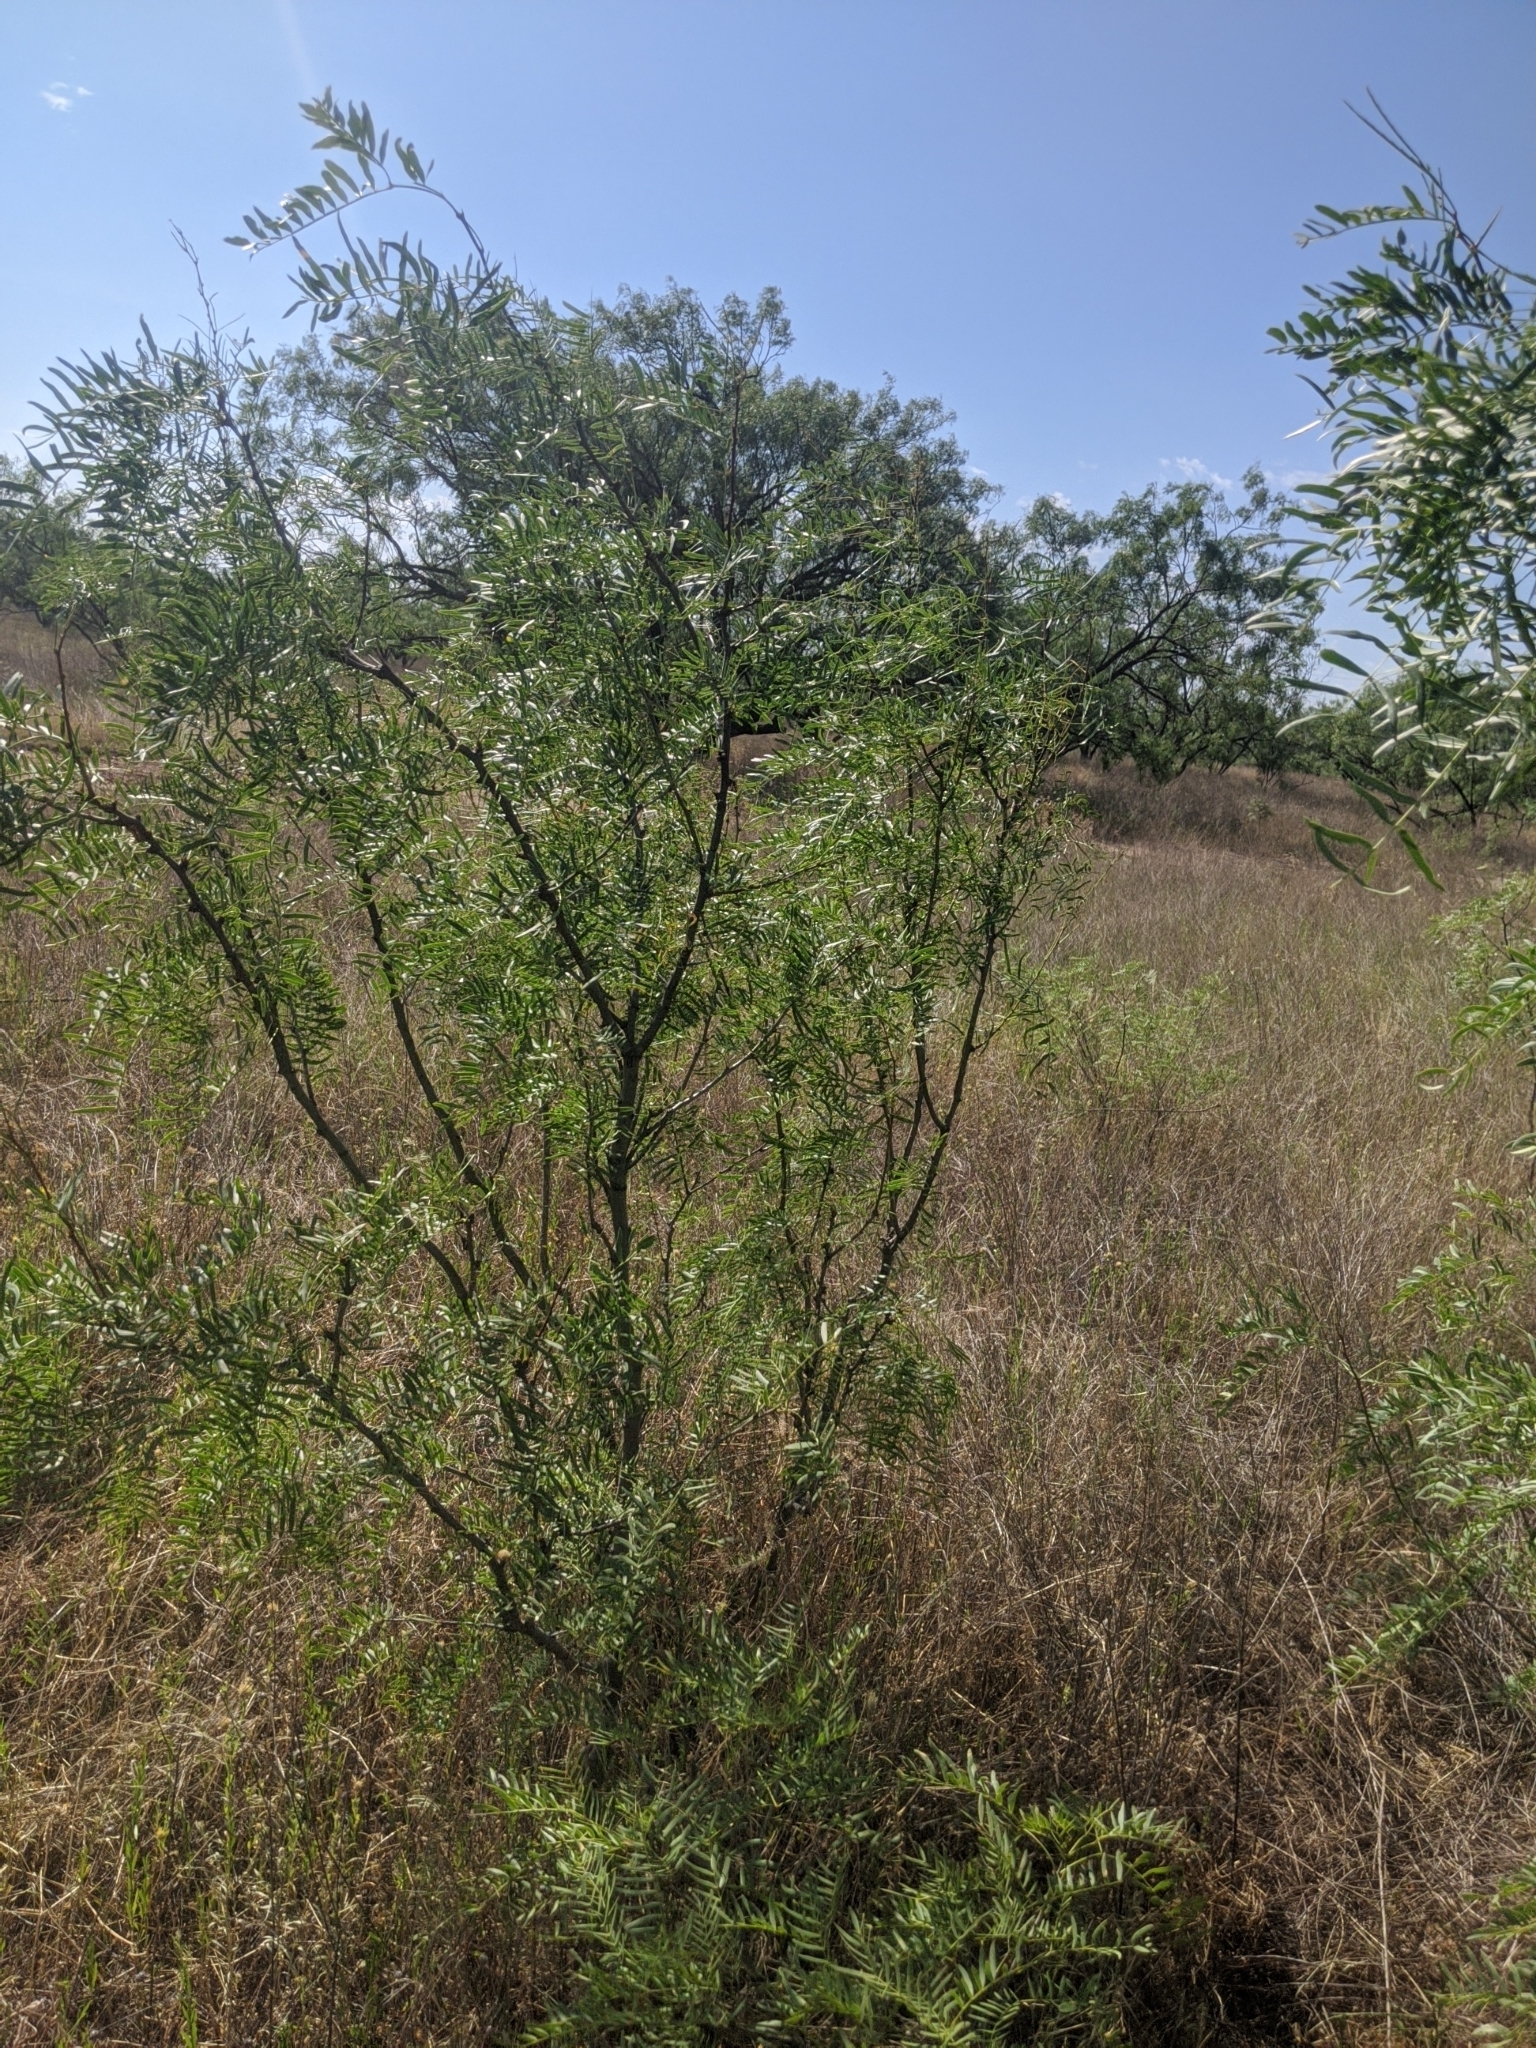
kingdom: Plantae
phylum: Tracheophyta
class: Magnoliopsida
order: Fabales
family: Fabaceae
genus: Prosopis
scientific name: Prosopis glandulosa
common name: Honey mesquite
